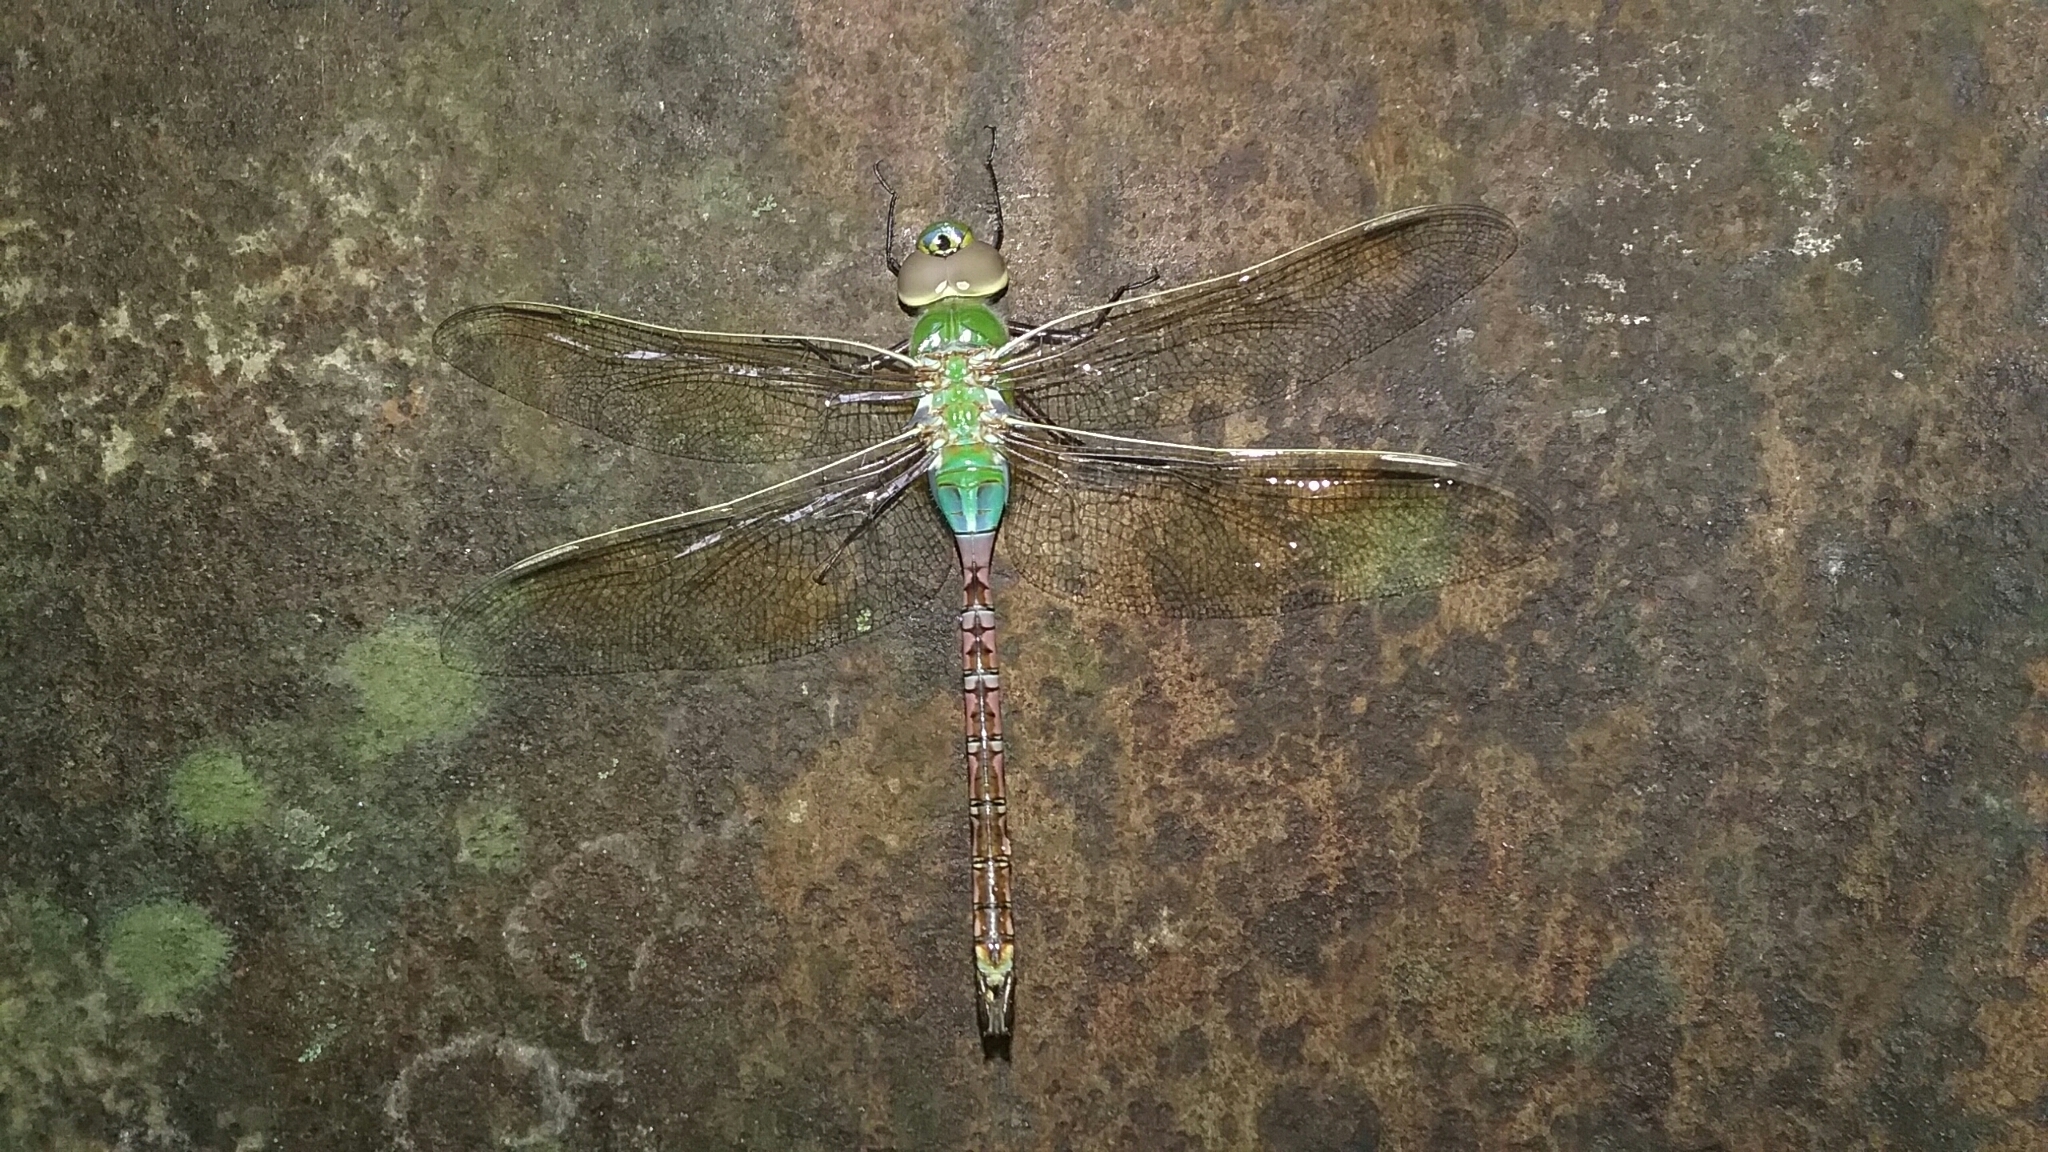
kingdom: Animalia
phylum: Arthropoda
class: Insecta
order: Odonata
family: Aeshnidae
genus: Anax
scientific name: Anax junius
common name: Common green darner
